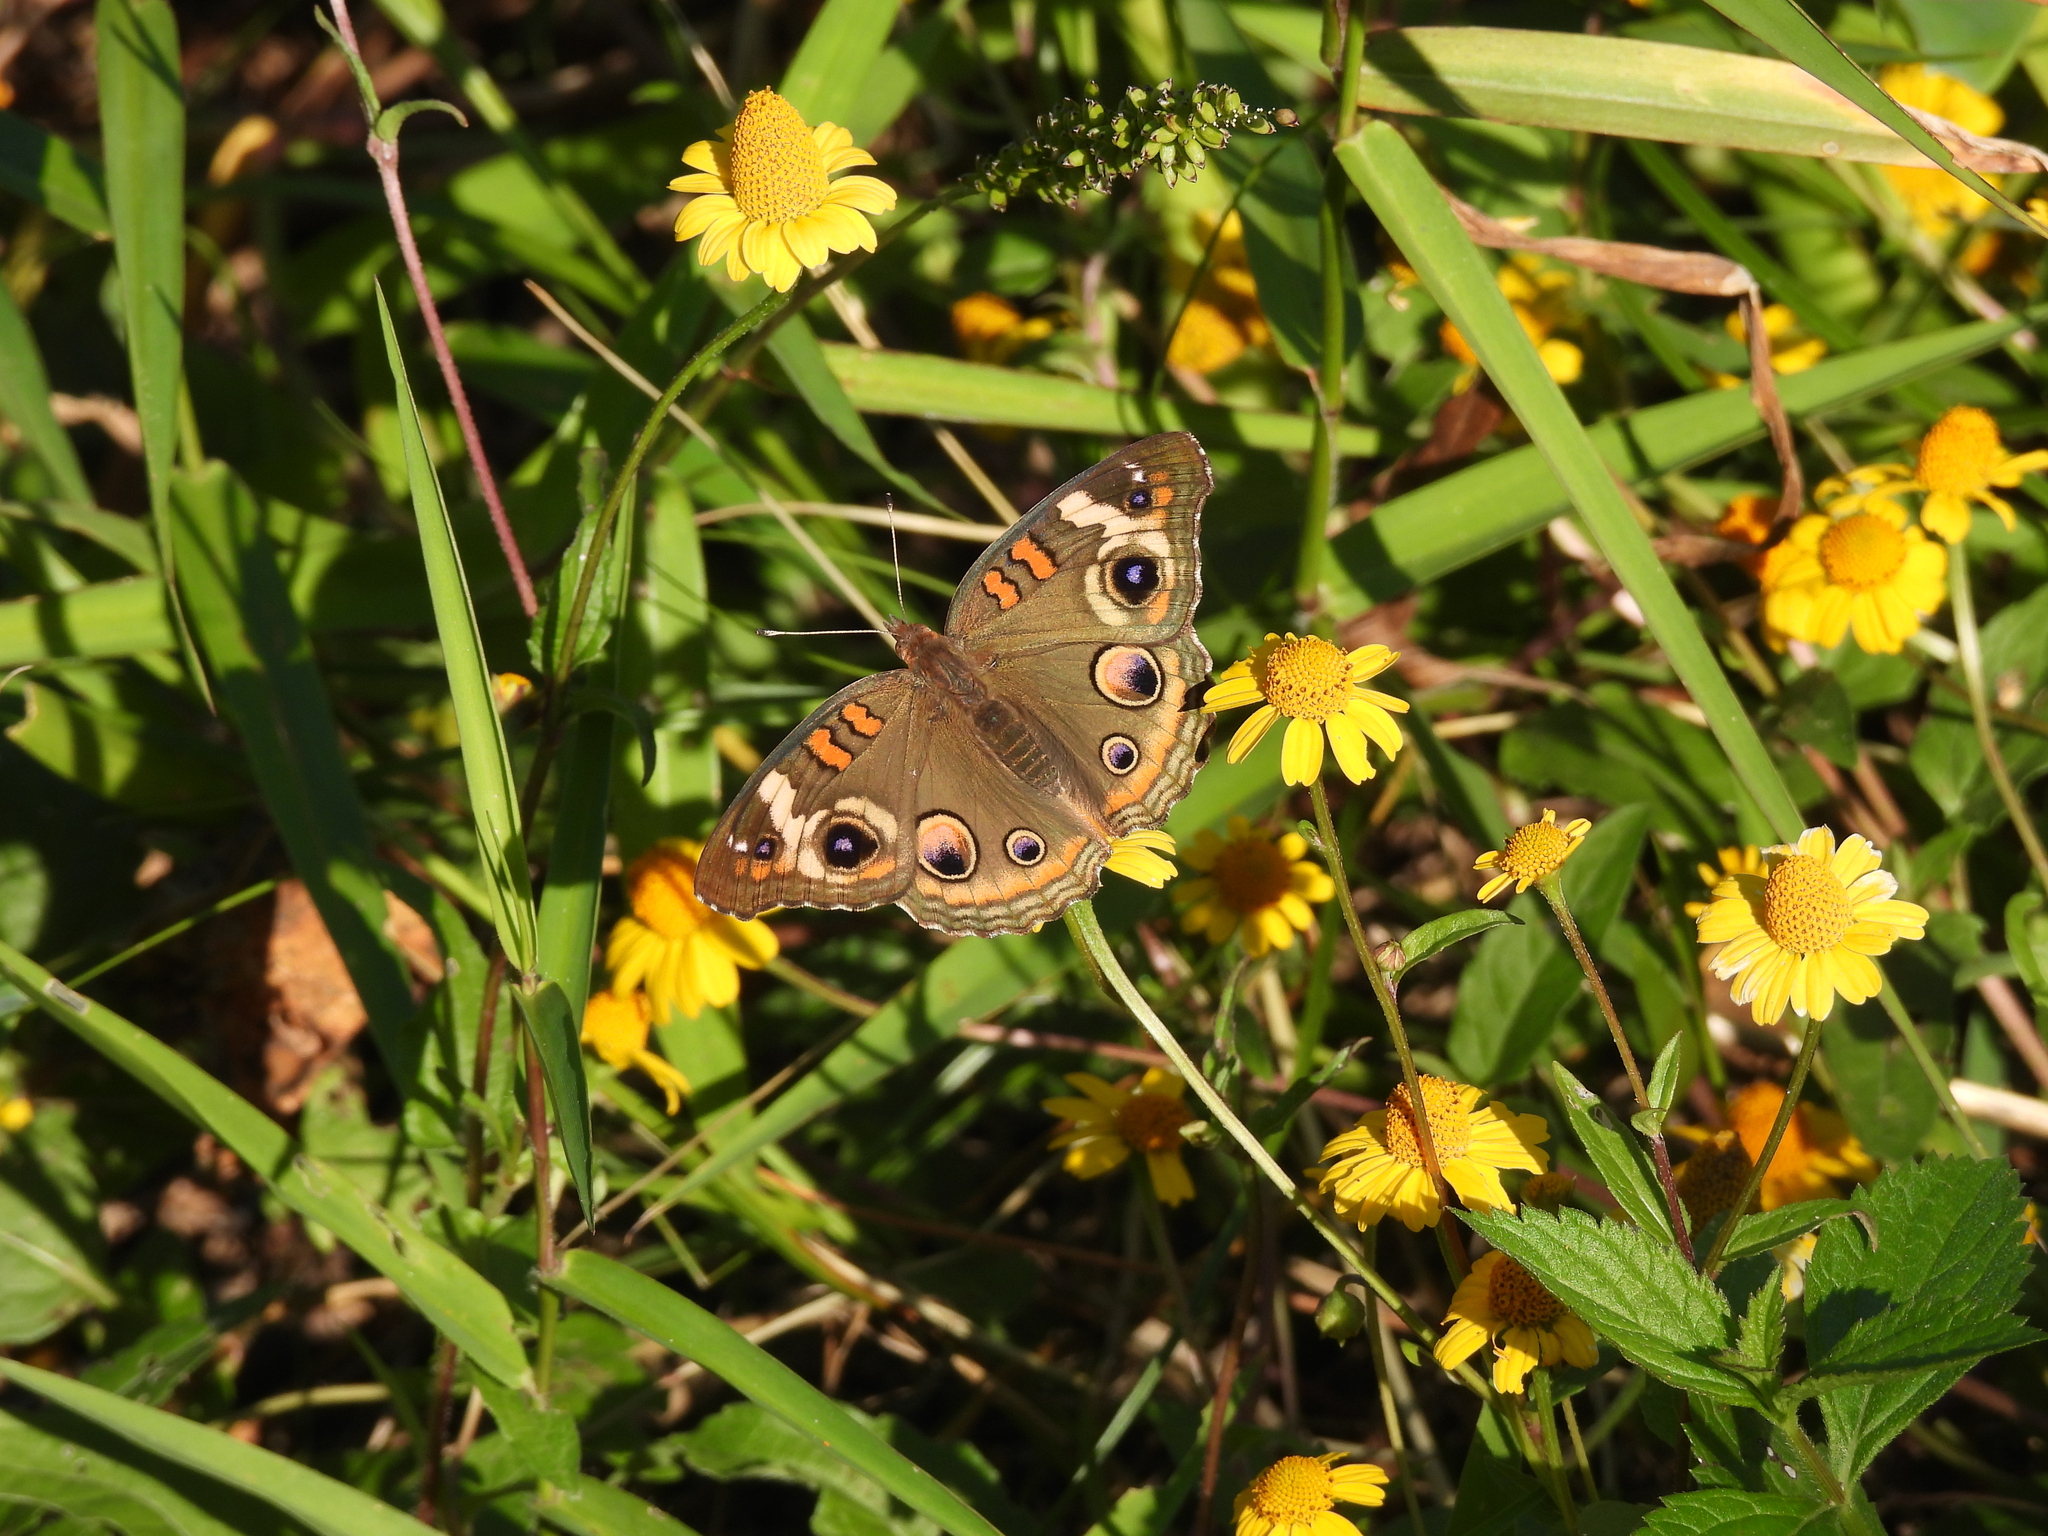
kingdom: Animalia
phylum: Arthropoda
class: Insecta
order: Lepidoptera
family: Nymphalidae
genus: Junonia
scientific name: Junonia coenia
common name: Common buckeye
